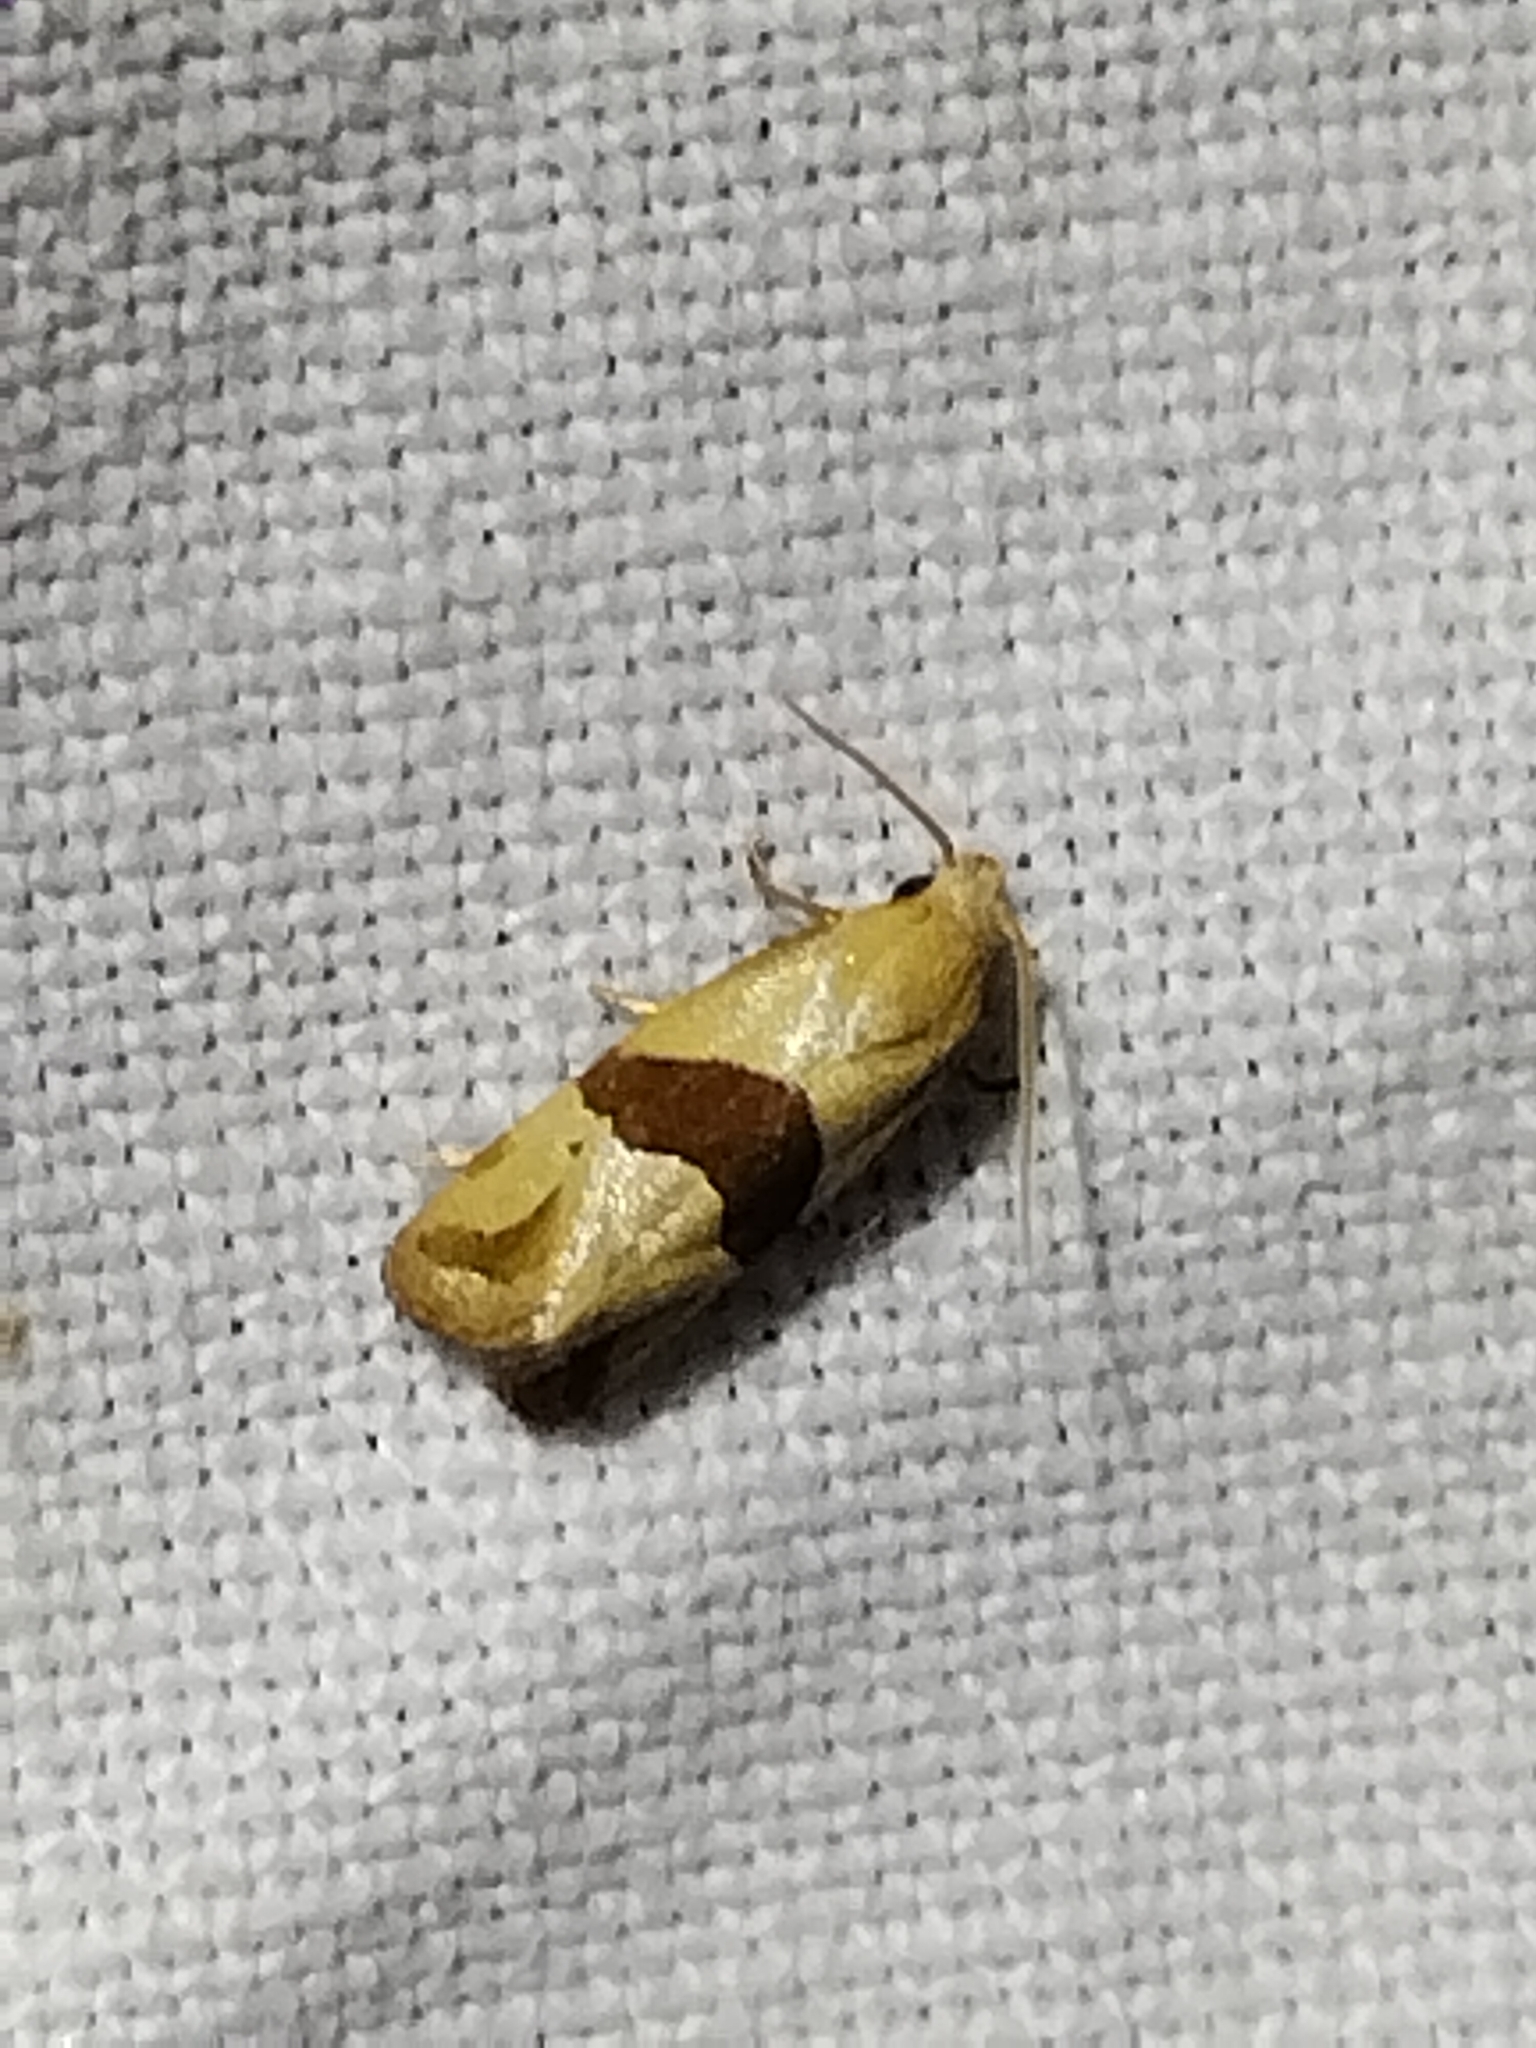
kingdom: Animalia
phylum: Arthropoda
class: Insecta
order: Lepidoptera
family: Tortricidae
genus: Eugnosta
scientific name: Eugnosta sartana
